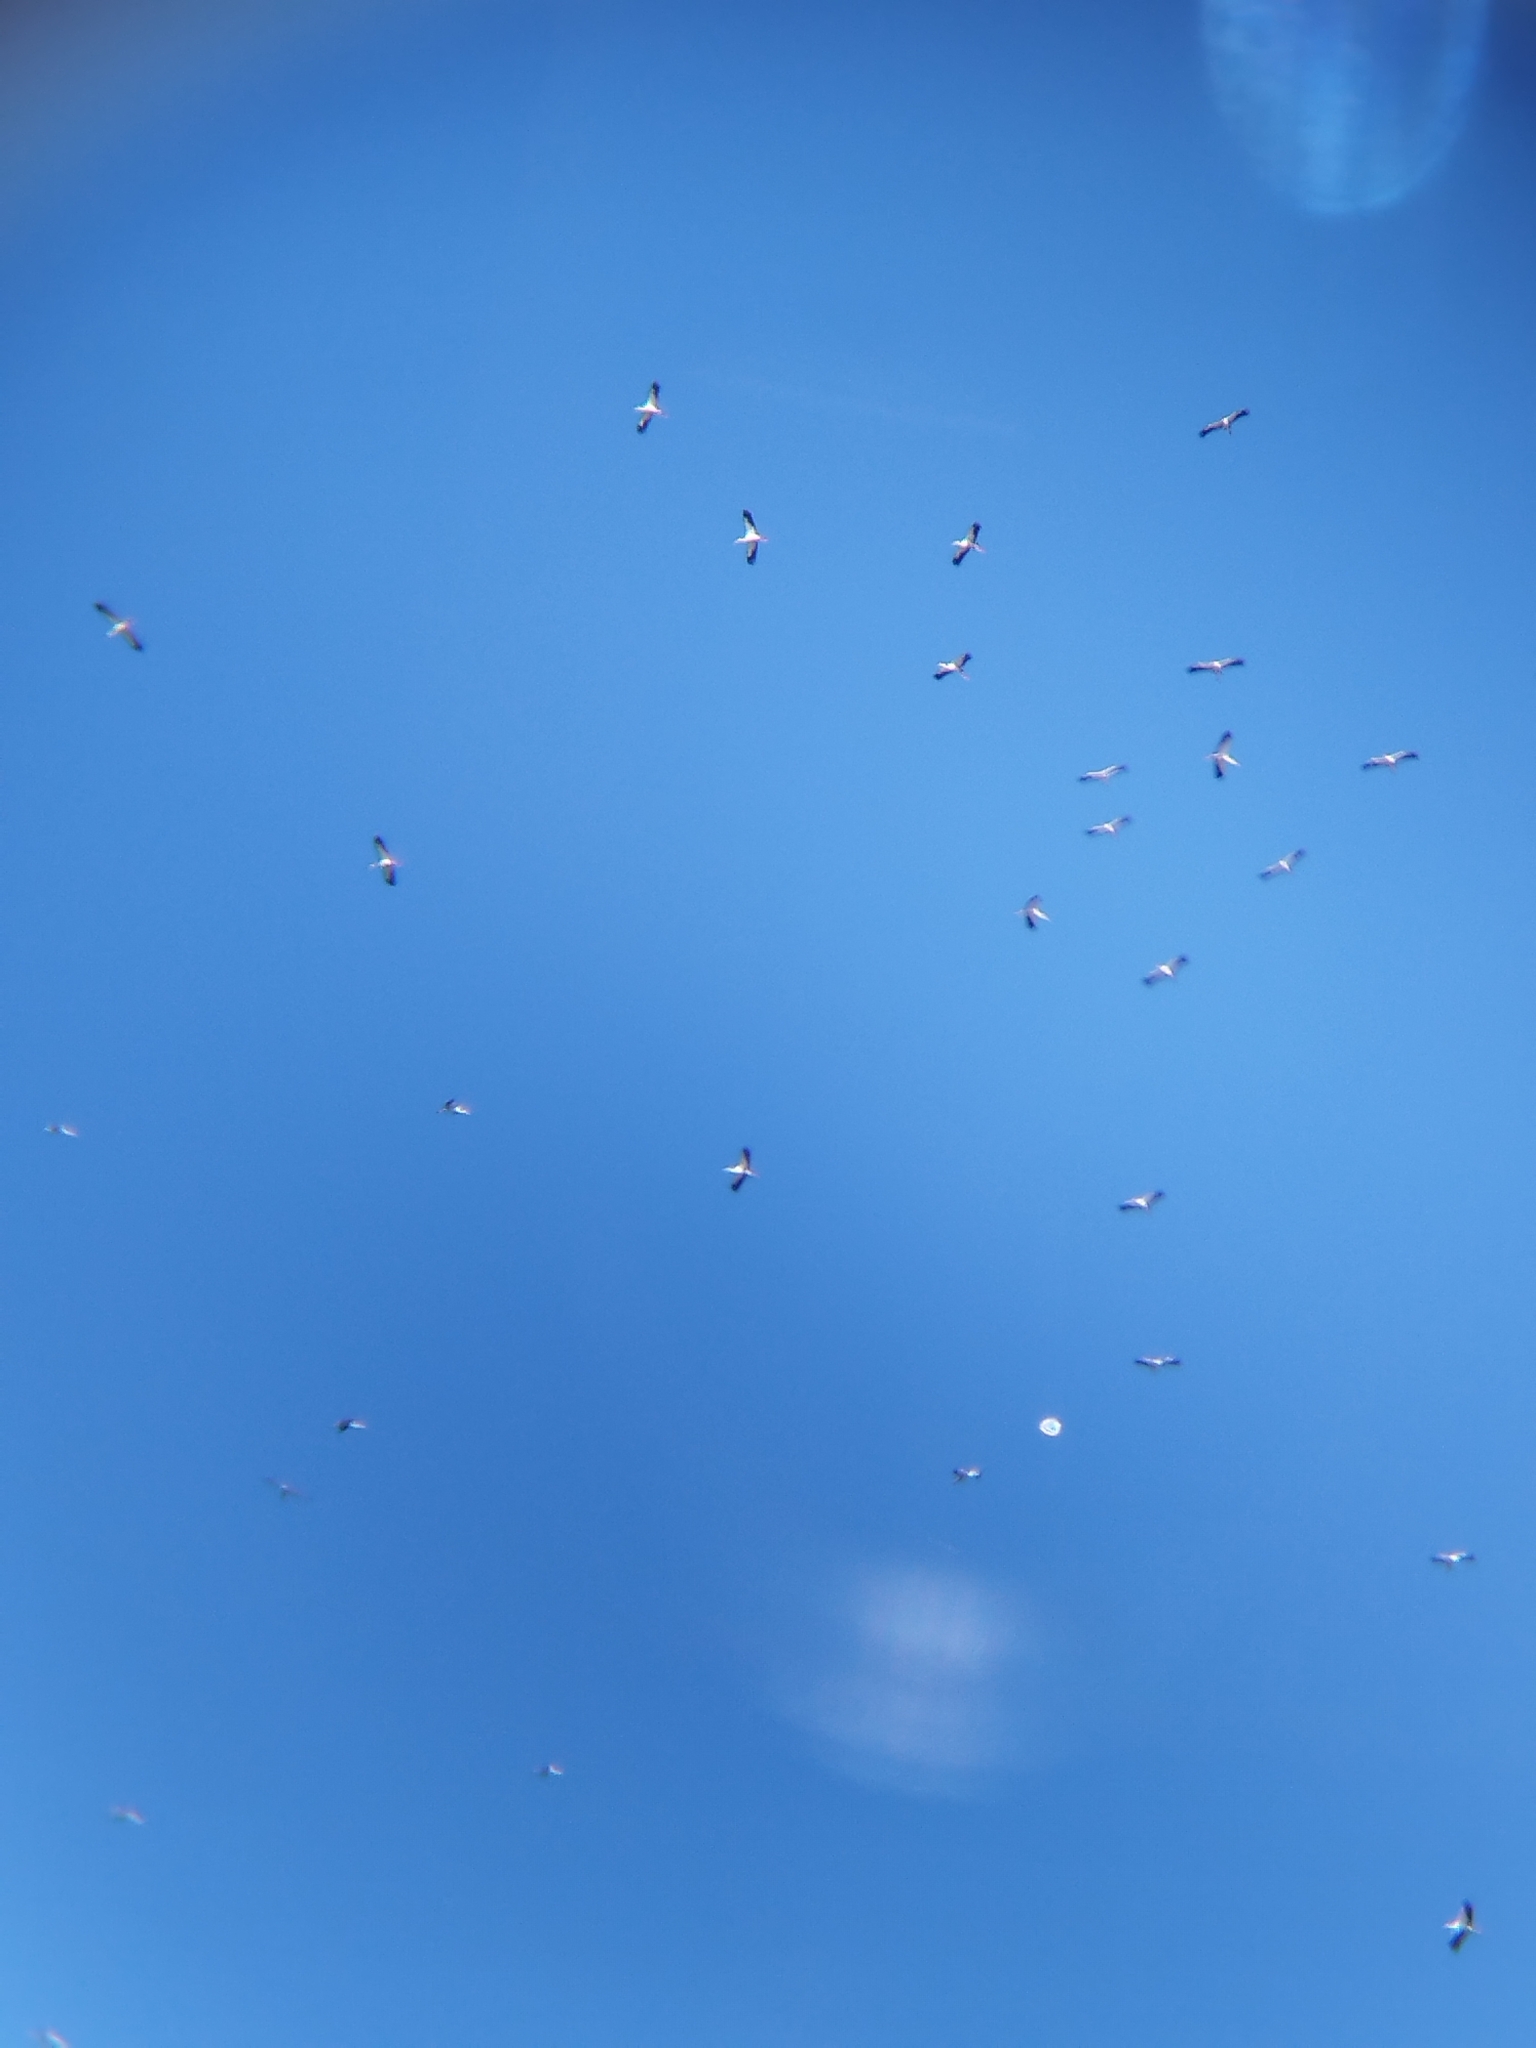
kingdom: Animalia
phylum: Chordata
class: Aves
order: Ciconiiformes
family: Ciconiidae
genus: Ciconia
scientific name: Ciconia maguari
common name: Maguari stork
